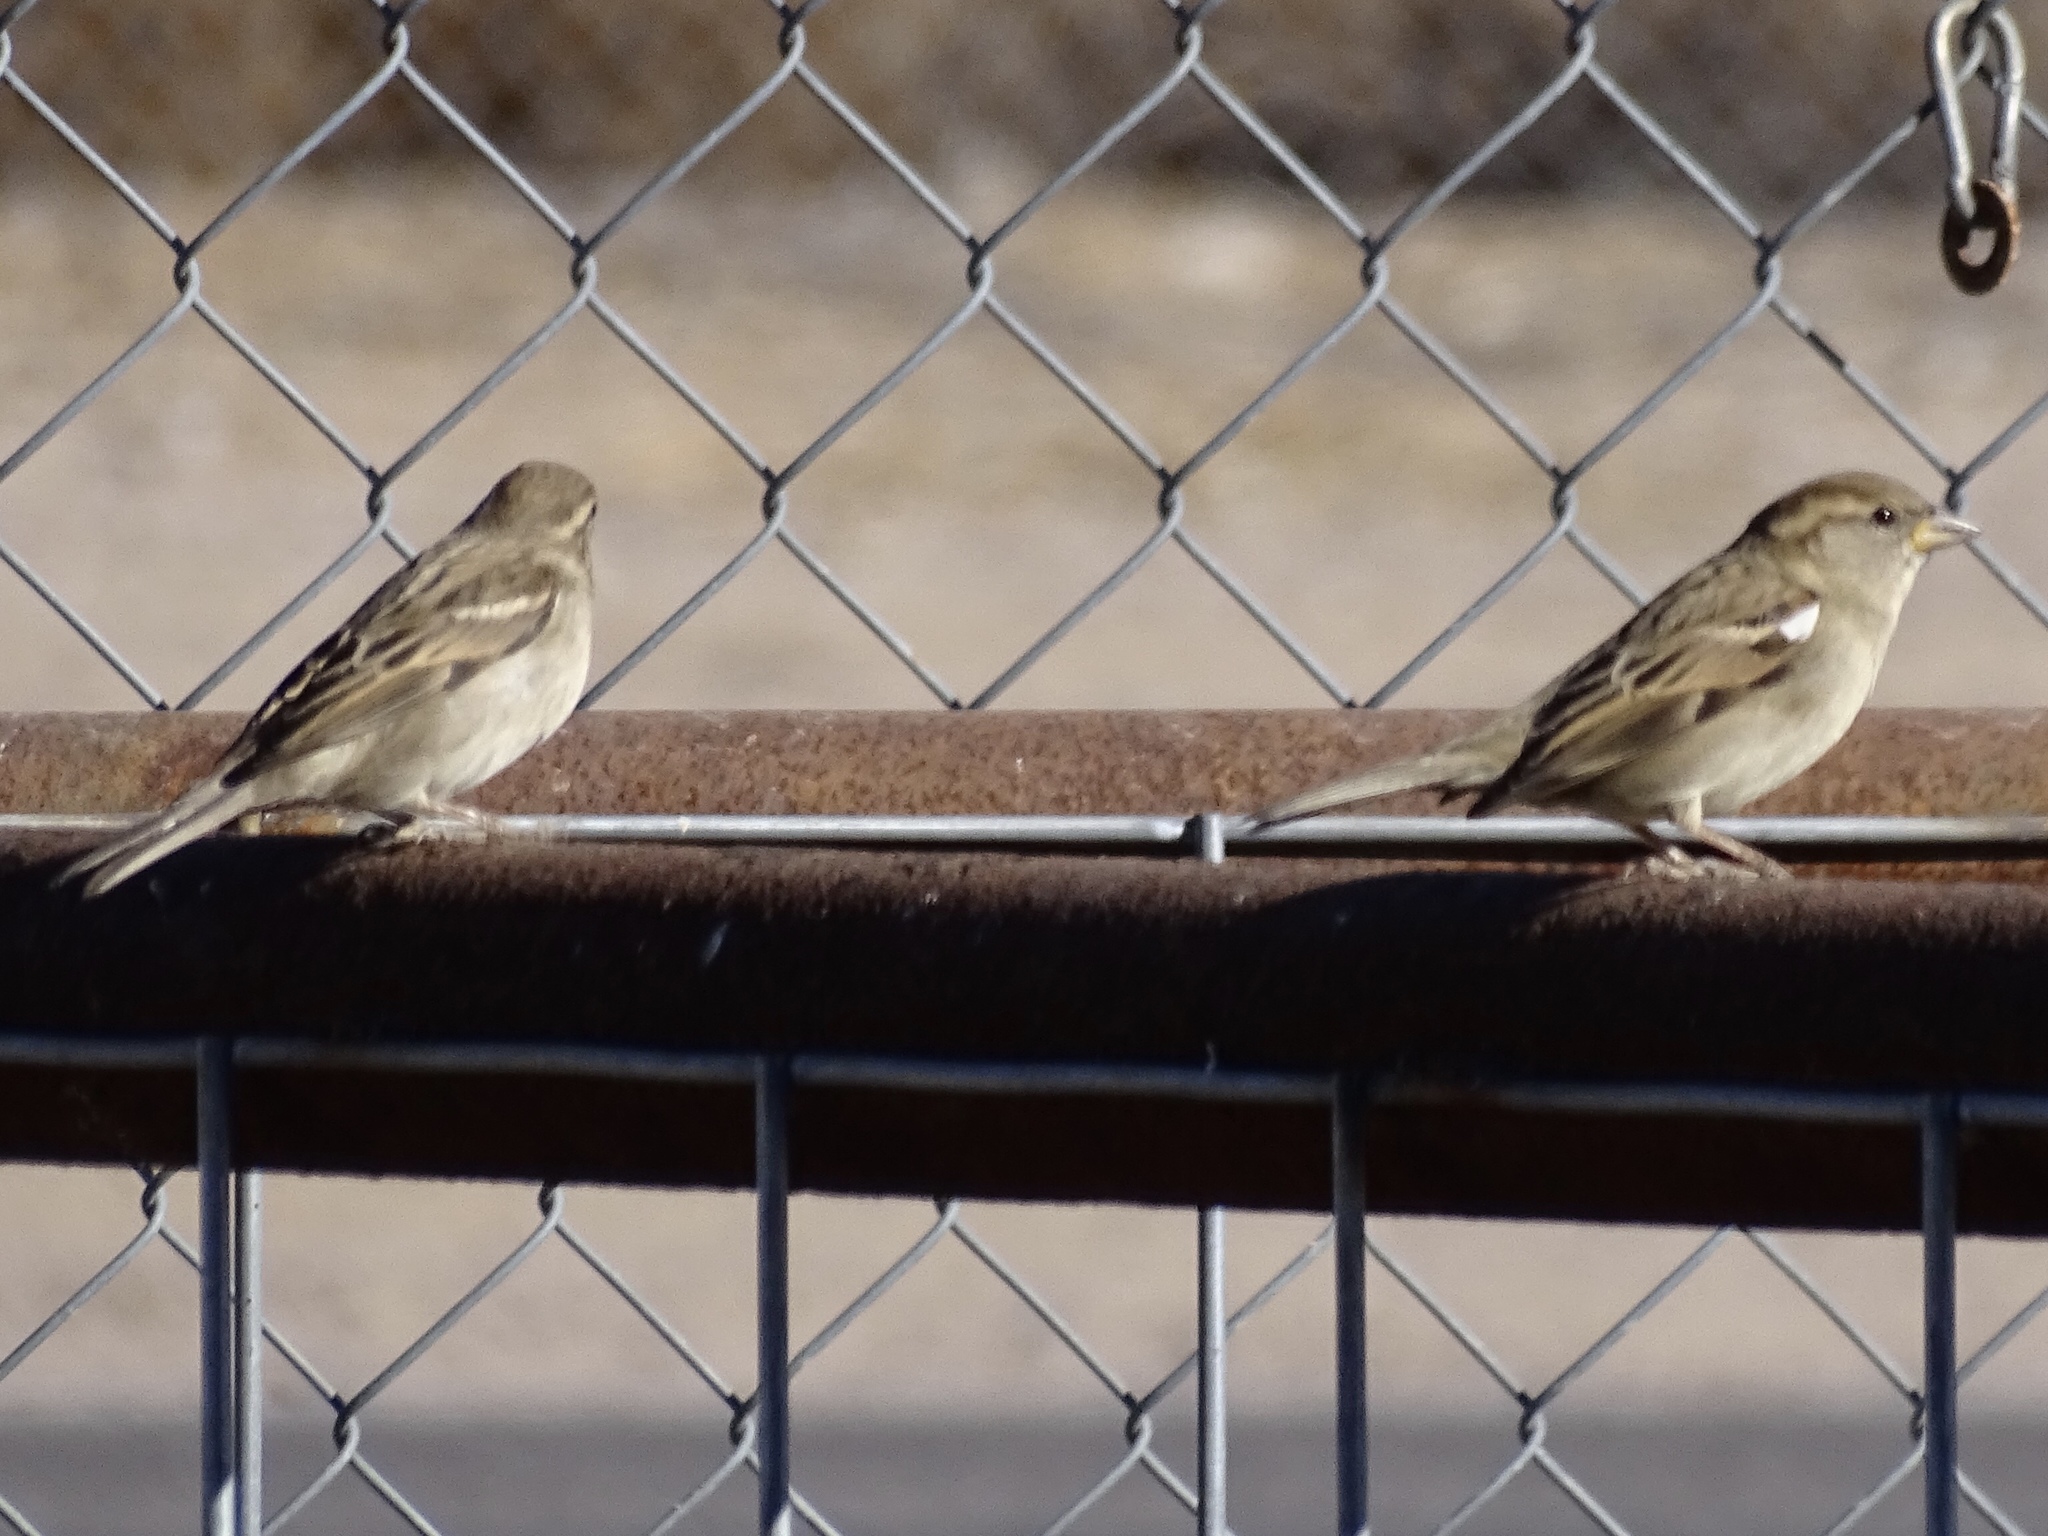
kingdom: Animalia
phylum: Chordata
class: Aves
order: Passeriformes
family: Passeridae
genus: Passer
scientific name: Passer domesticus
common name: House sparrow
